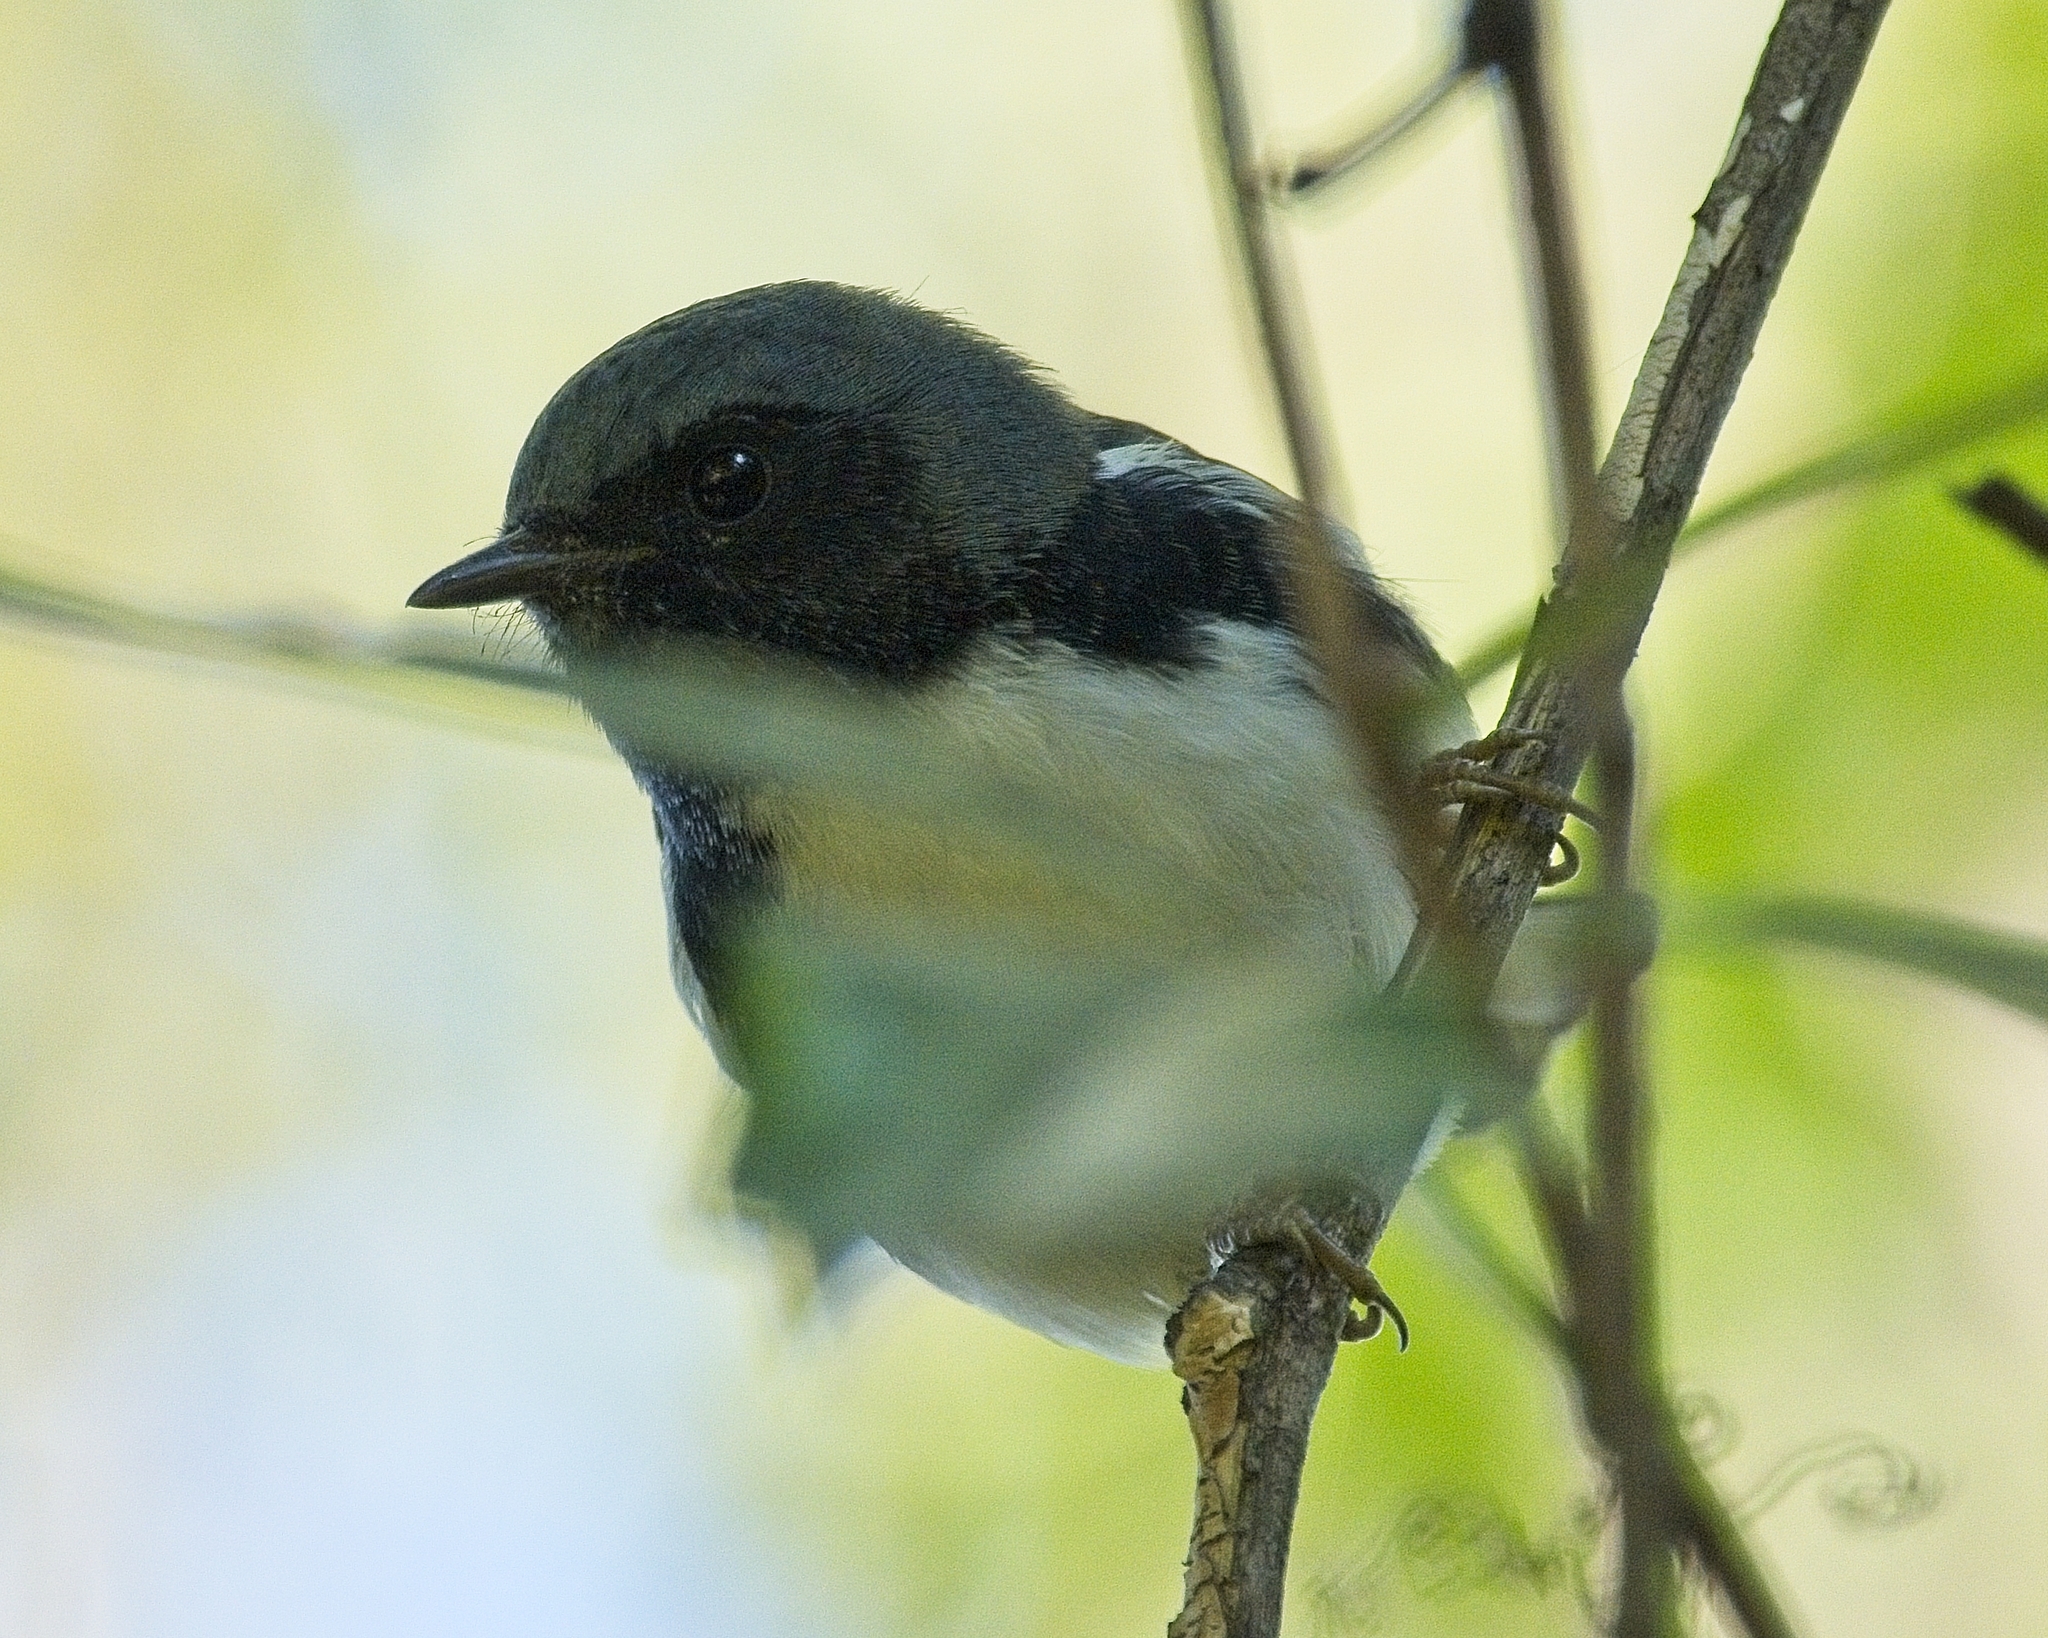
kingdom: Animalia
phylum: Chordata
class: Aves
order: Passeriformes
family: Parulidae
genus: Setophaga
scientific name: Setophaga caerulescens
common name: Black-throated blue warbler
